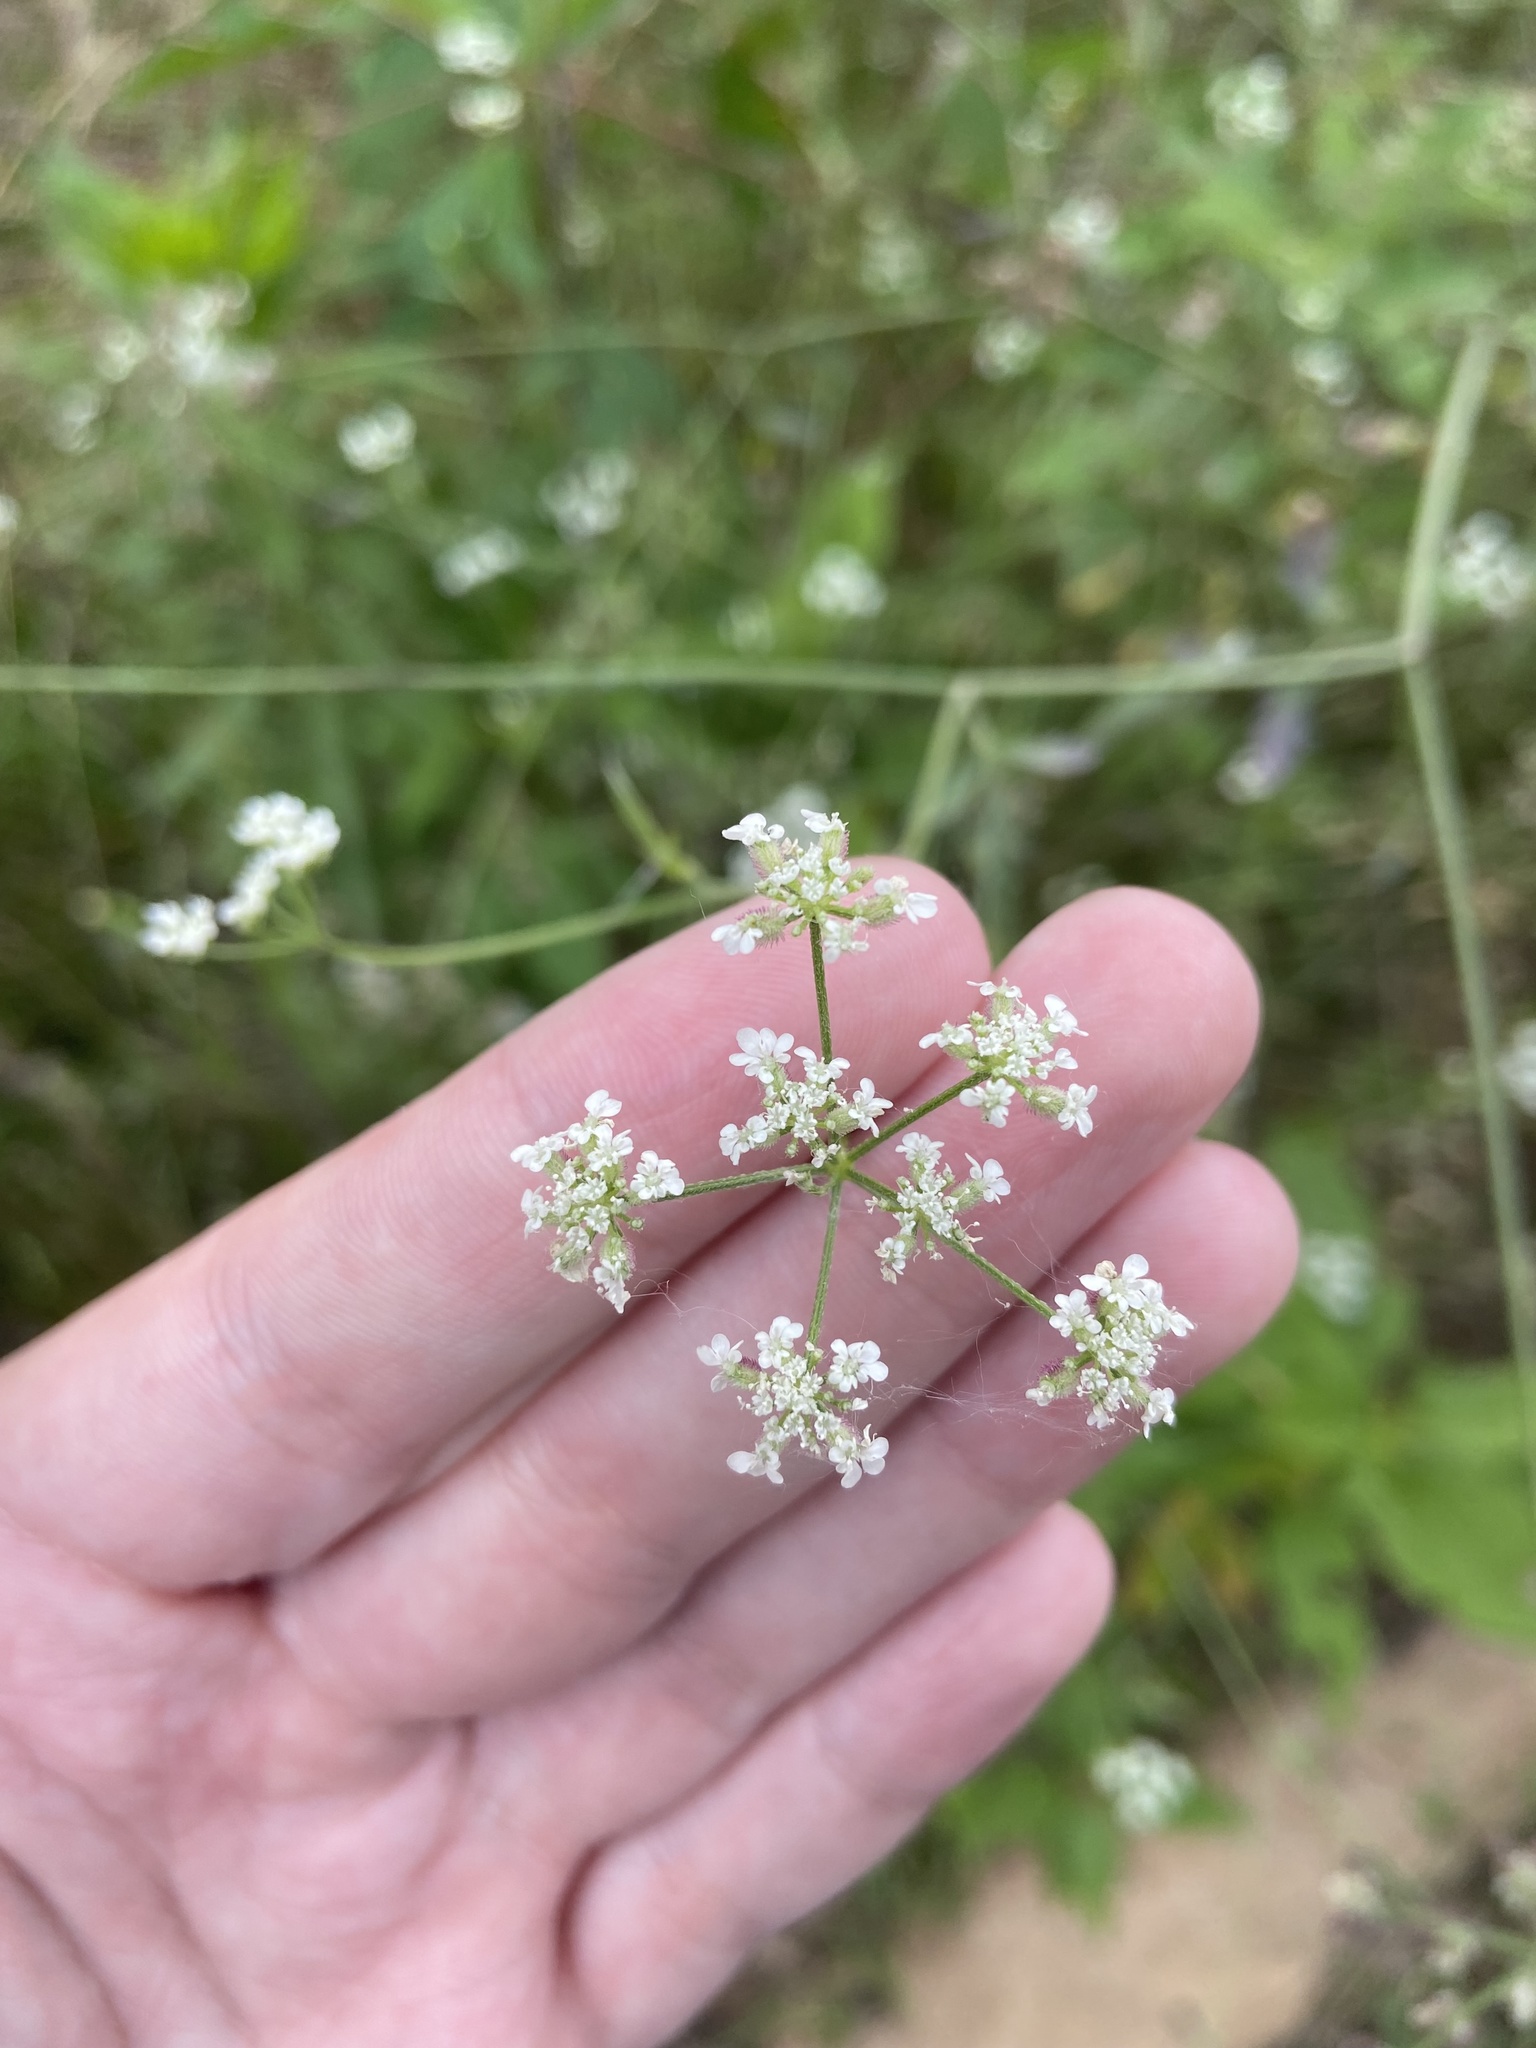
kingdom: Plantae
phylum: Tracheophyta
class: Magnoliopsida
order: Apiales
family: Apiaceae
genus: Torilis
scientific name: Torilis arvensis
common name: Spreading hedge-parsley
